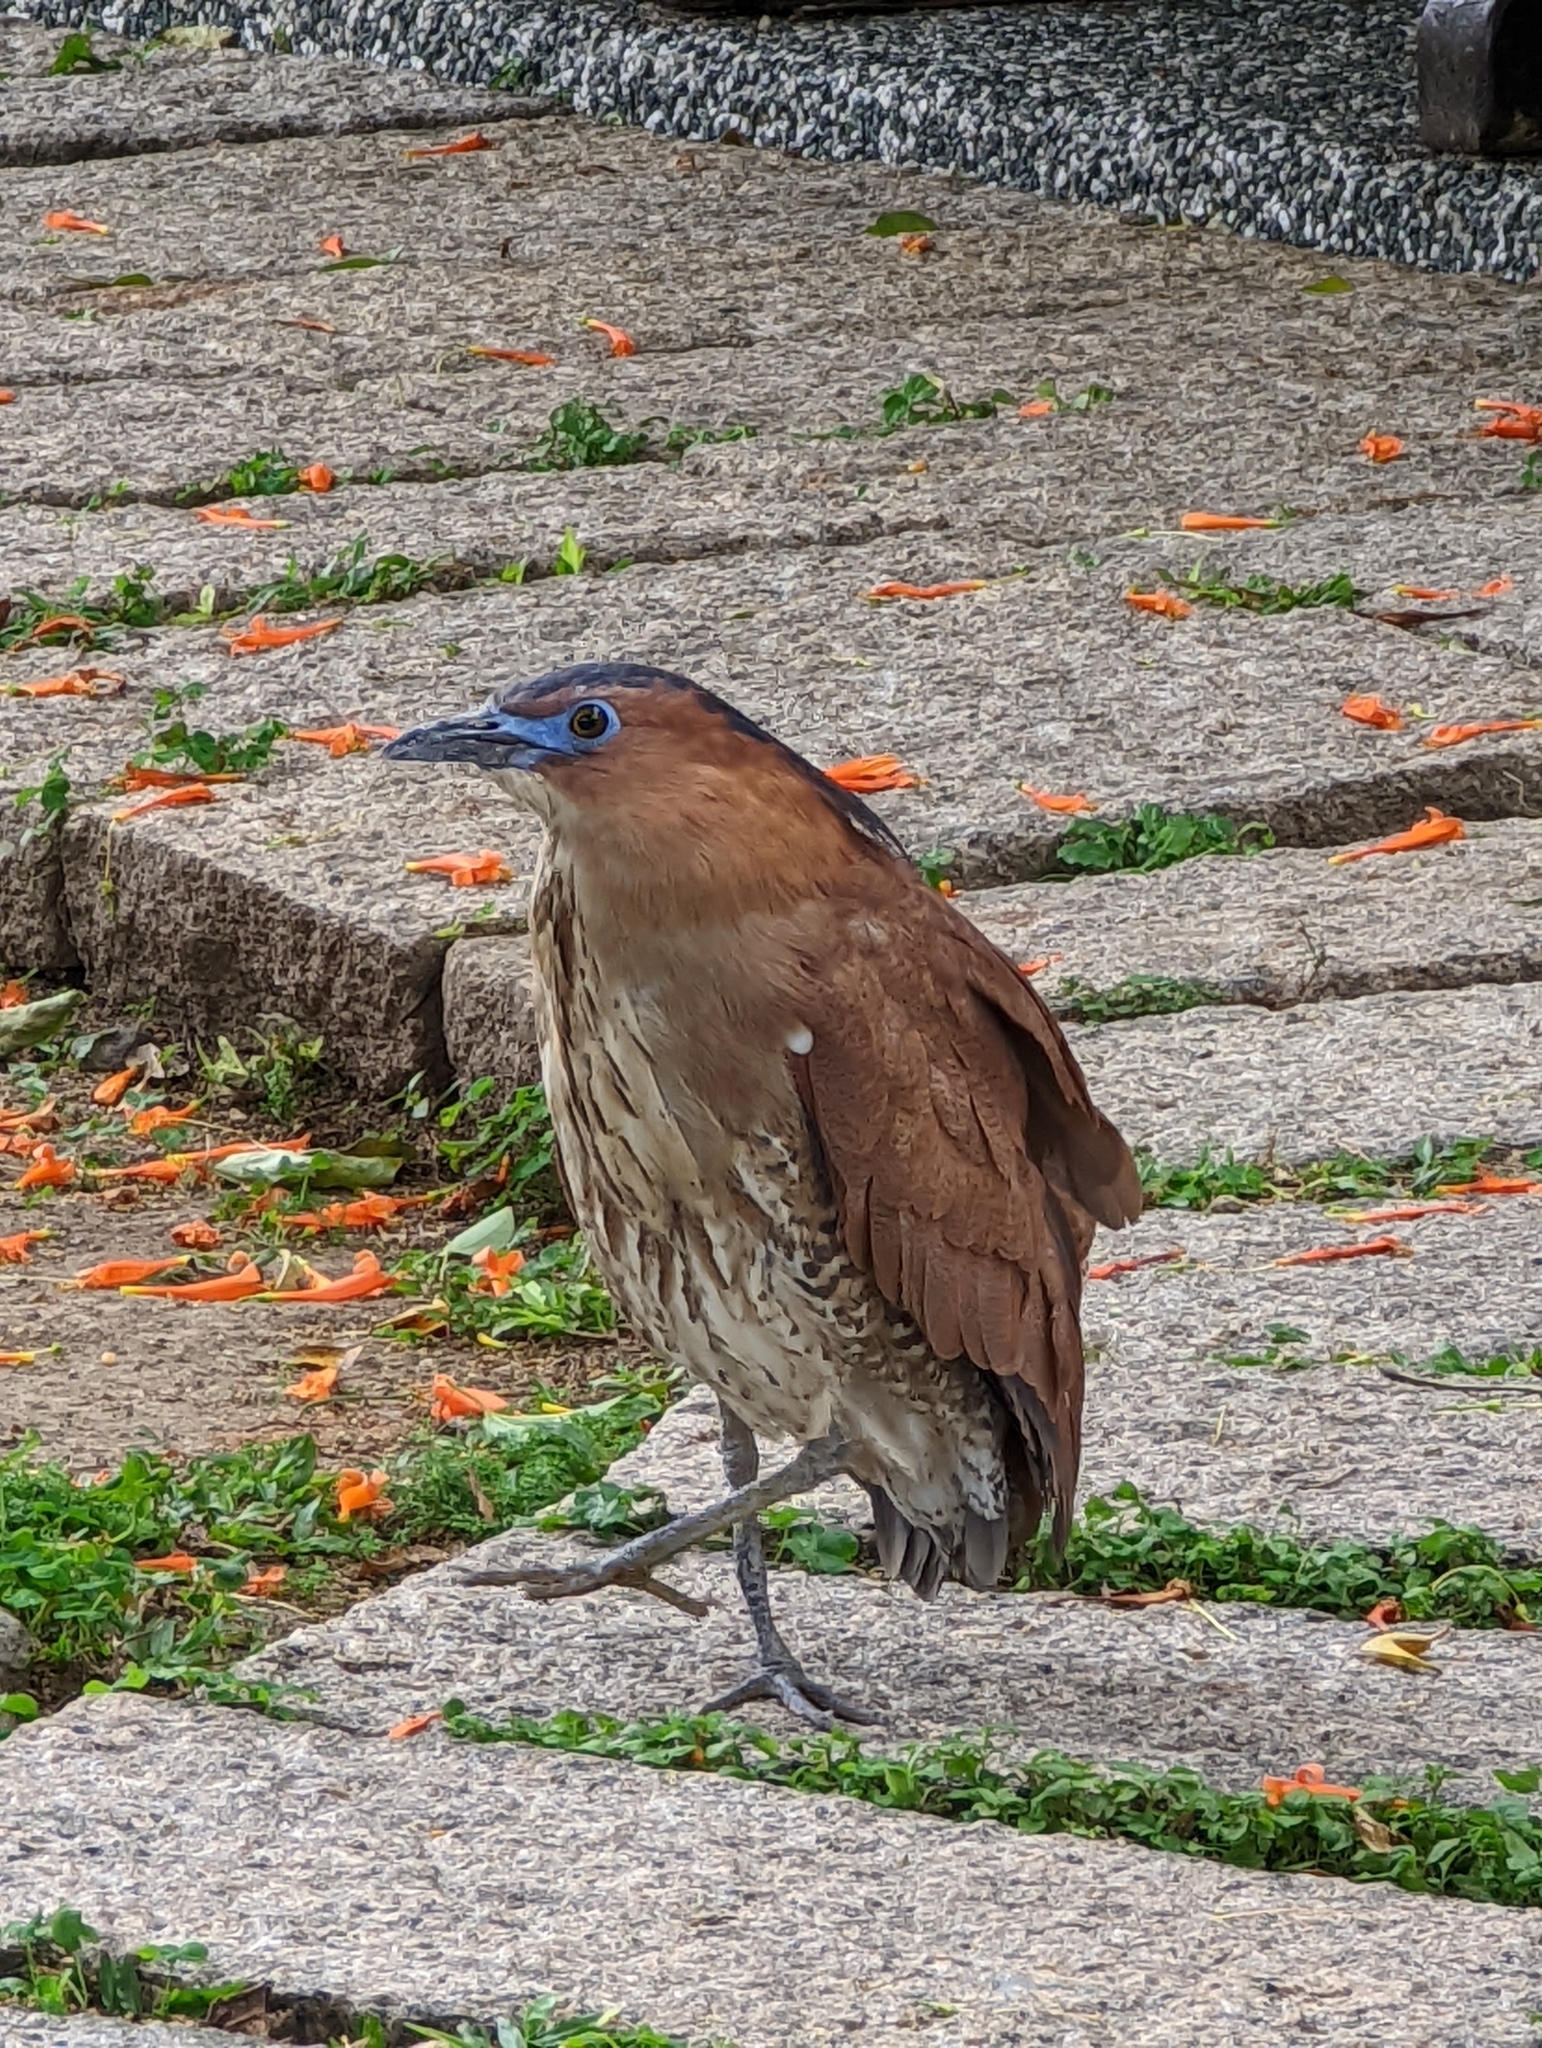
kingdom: Animalia
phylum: Chordata
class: Aves
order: Pelecaniformes
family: Ardeidae
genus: Gorsachius
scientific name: Gorsachius melanolophus
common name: Malayan night heron
